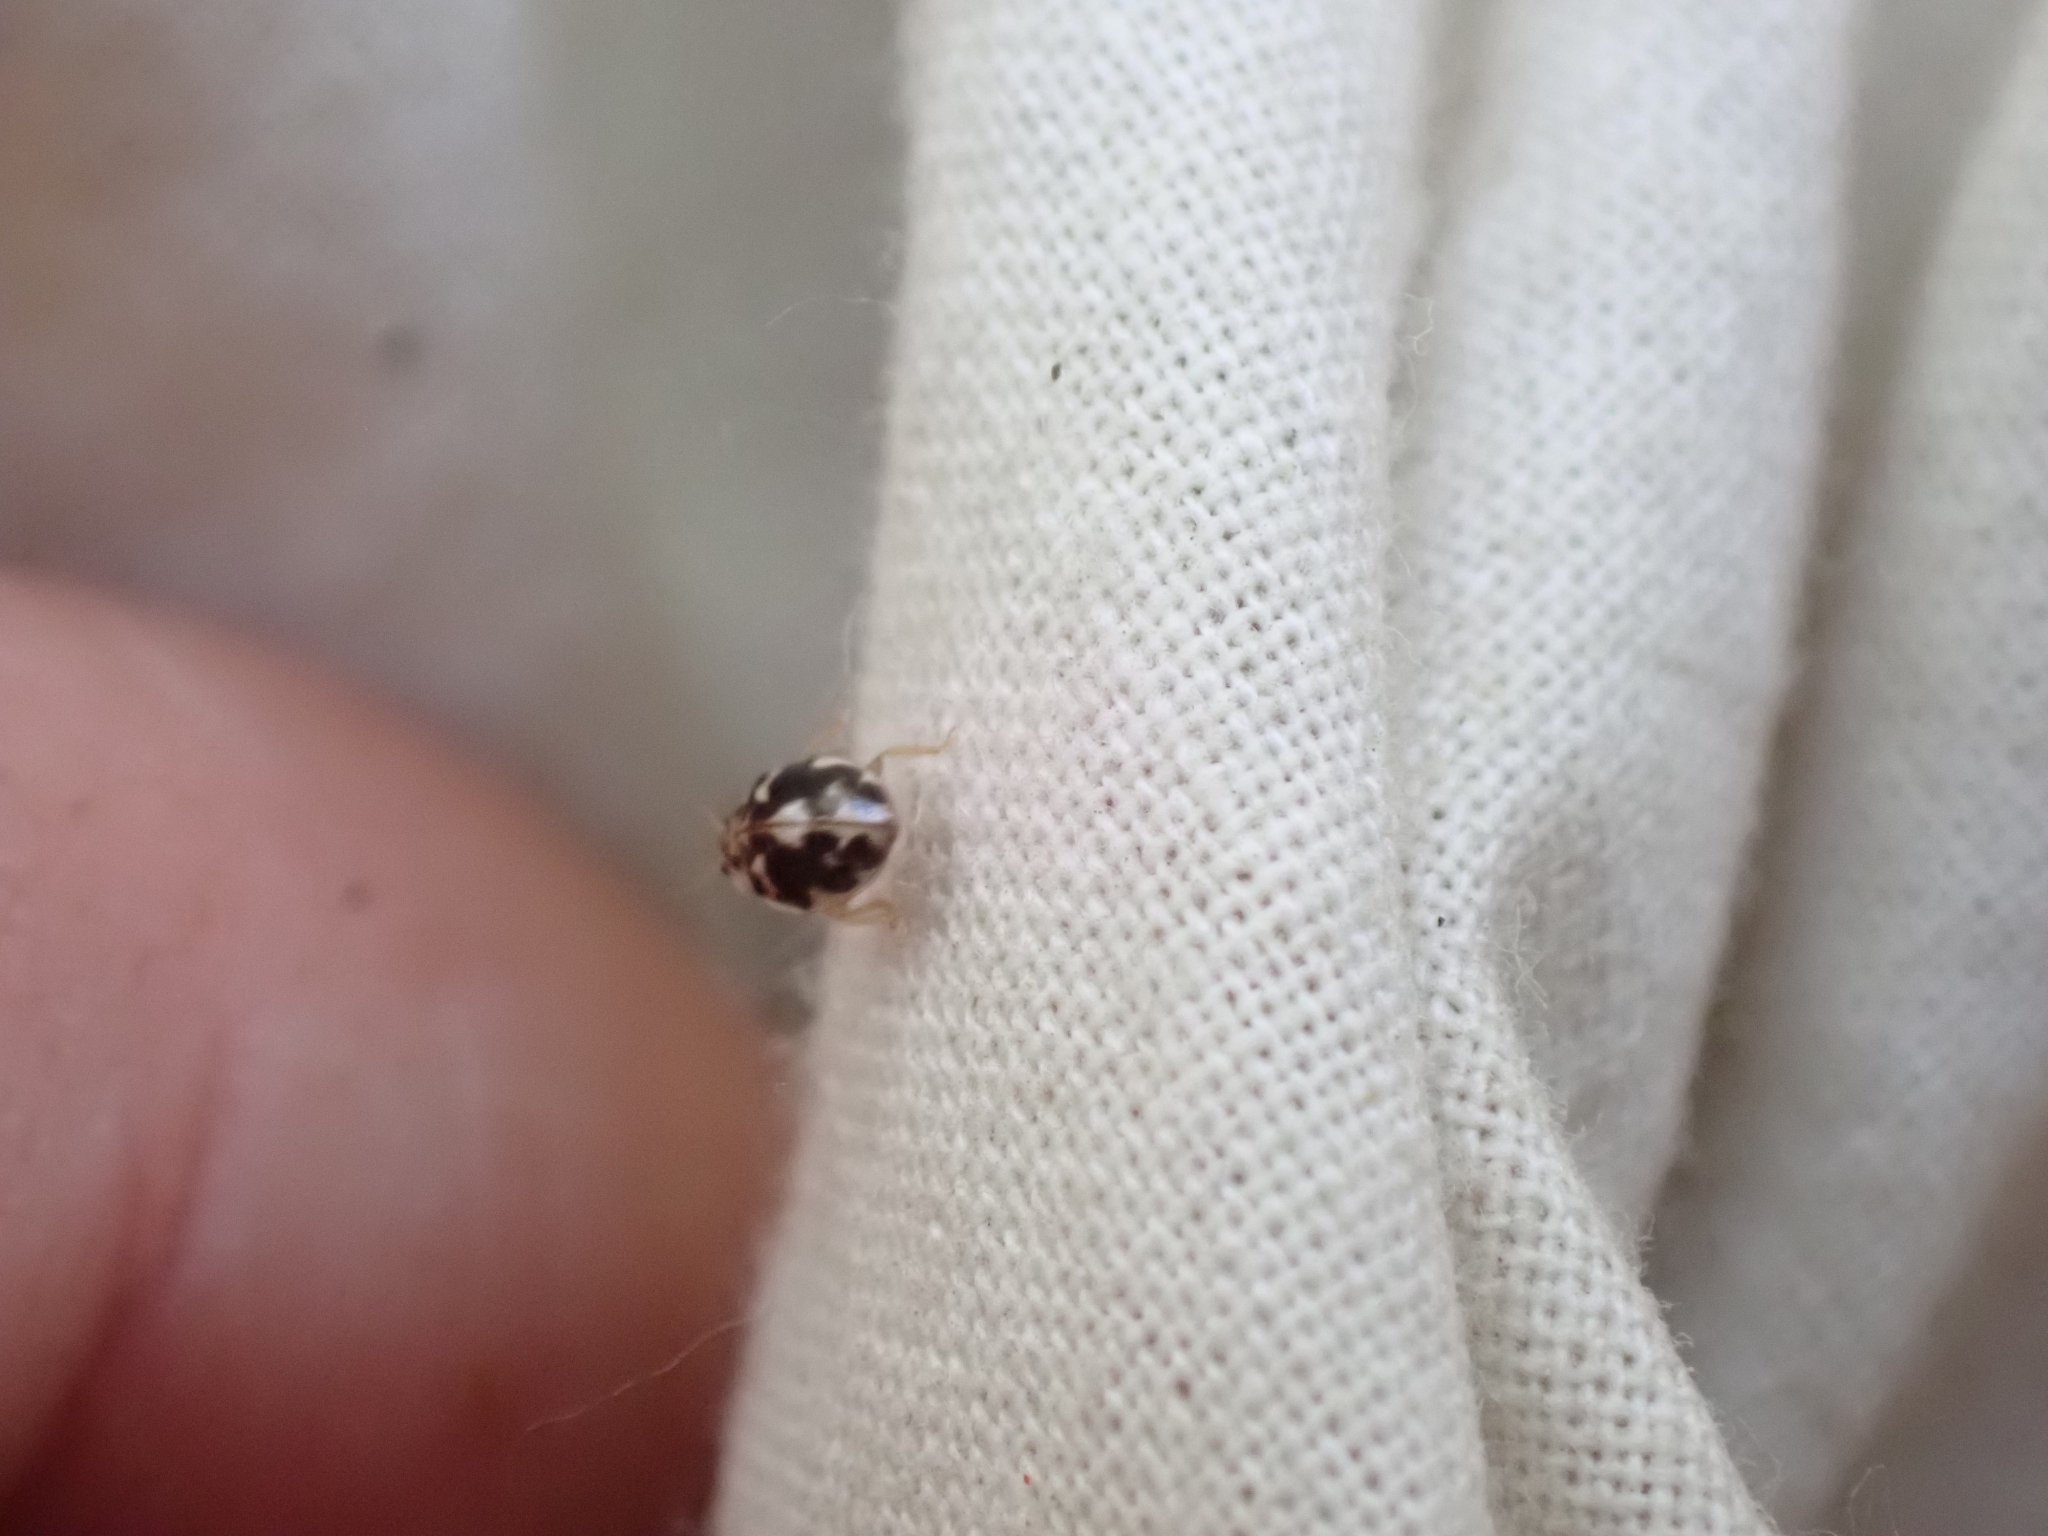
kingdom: Animalia
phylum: Arthropoda
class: Insecta
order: Coleoptera
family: Coccinellidae
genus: Psyllobora
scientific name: Psyllobora vigintimaculata
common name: Ladybird beetle
